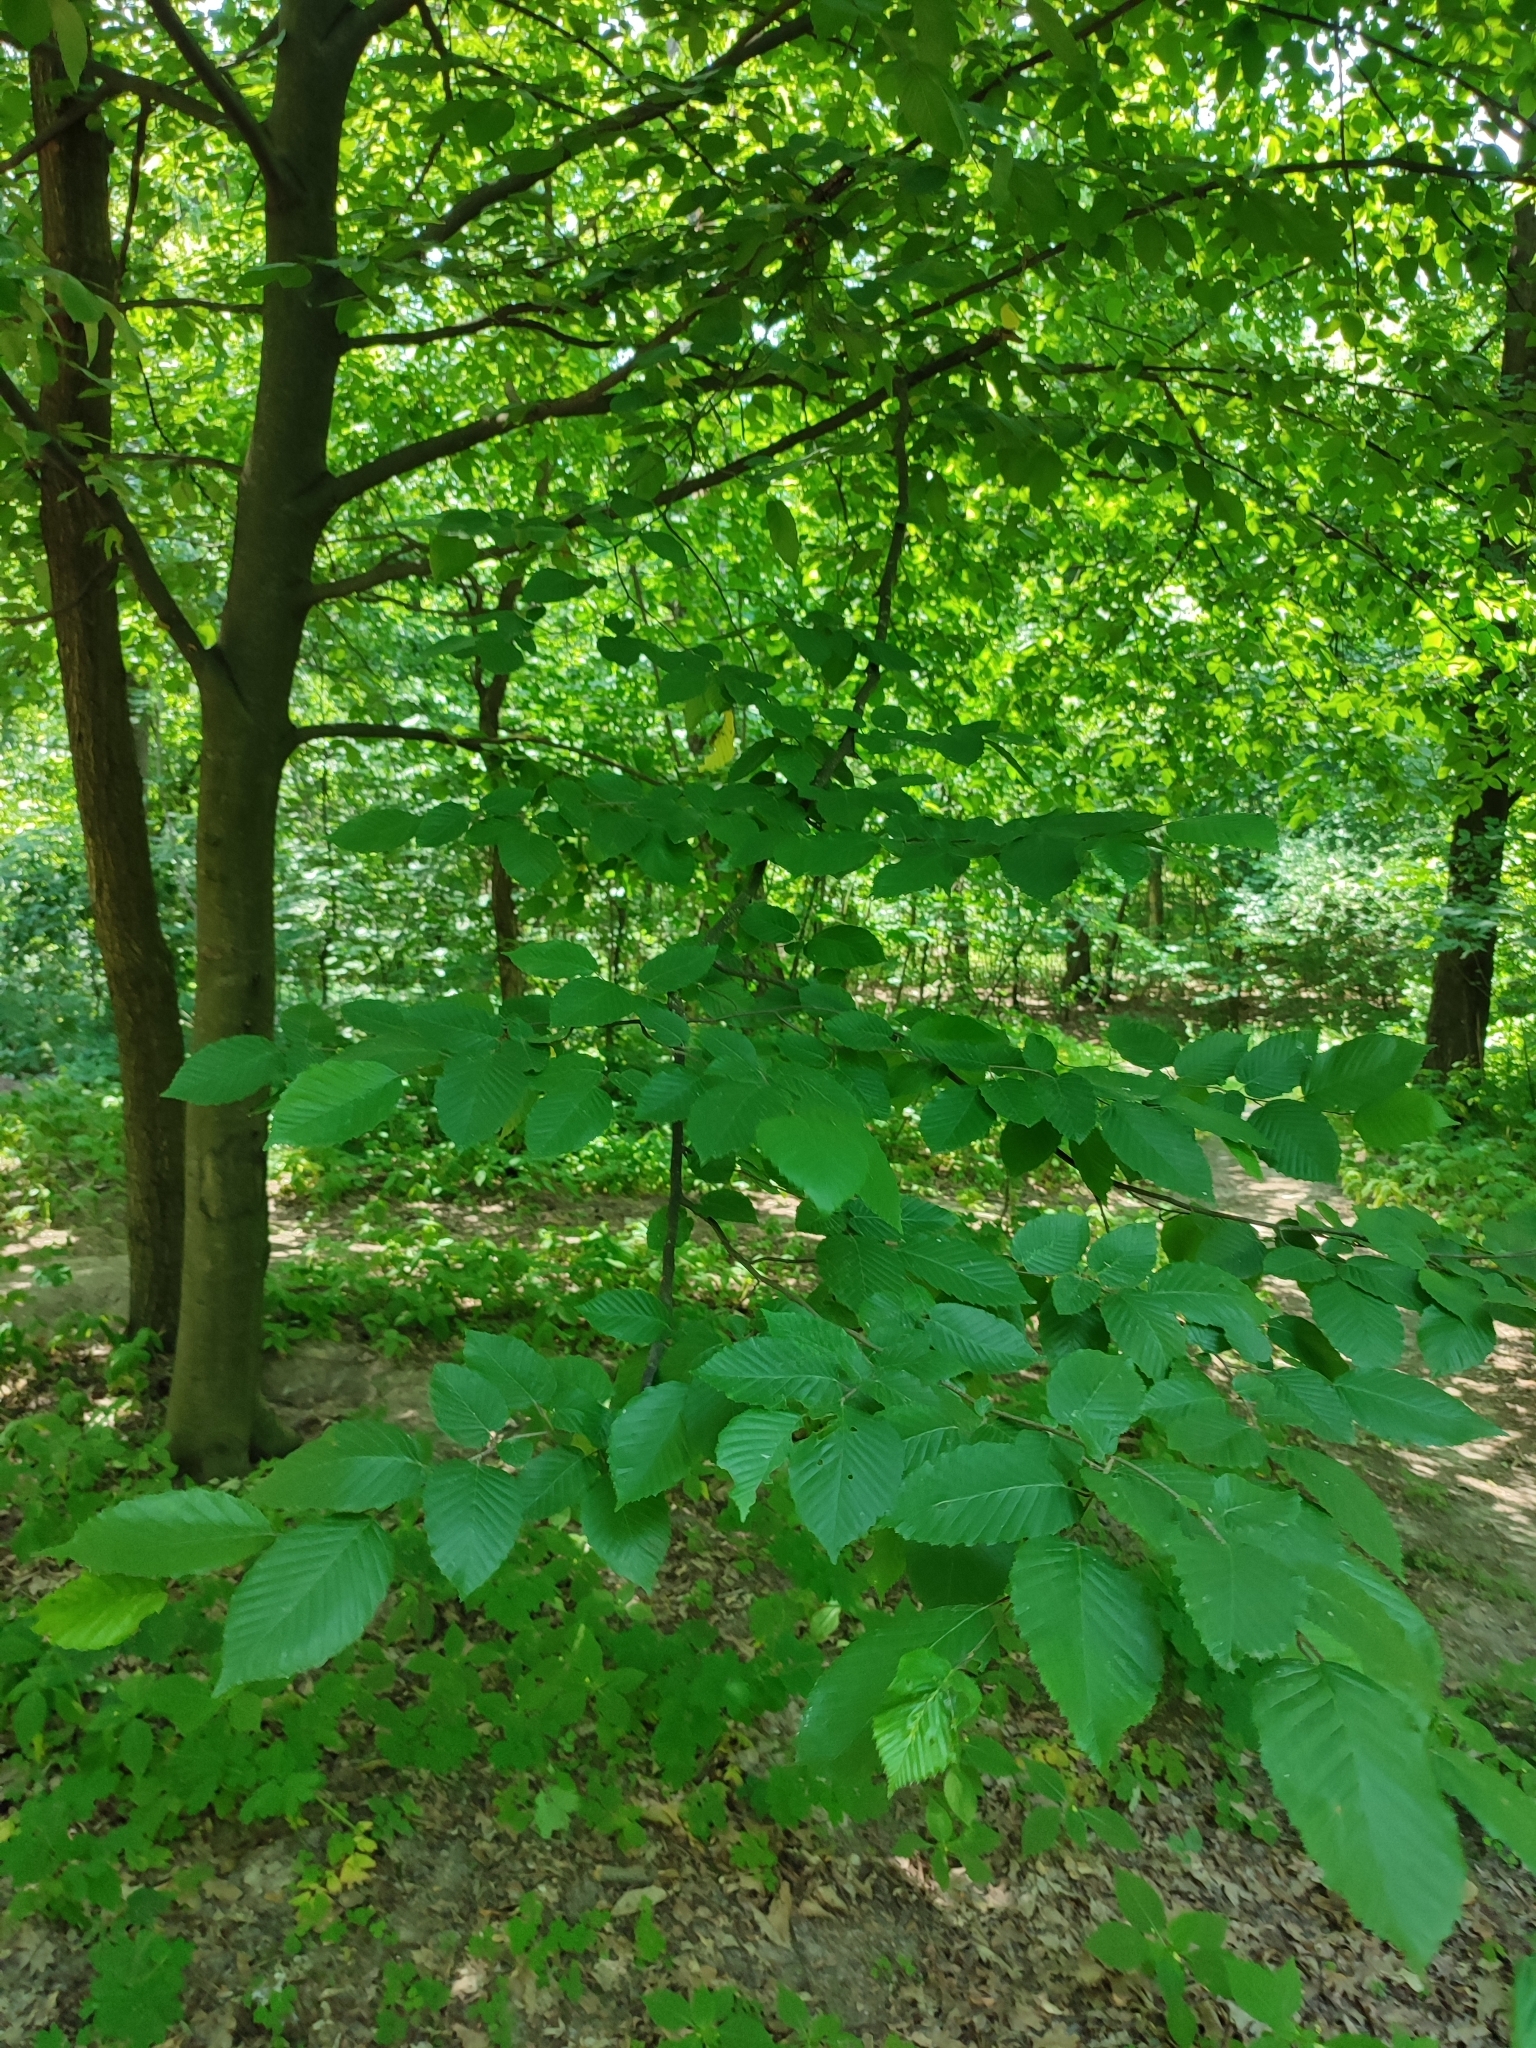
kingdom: Plantae
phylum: Tracheophyta
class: Magnoliopsida
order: Fagales
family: Betulaceae
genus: Carpinus
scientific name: Carpinus betulus
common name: Hornbeam
